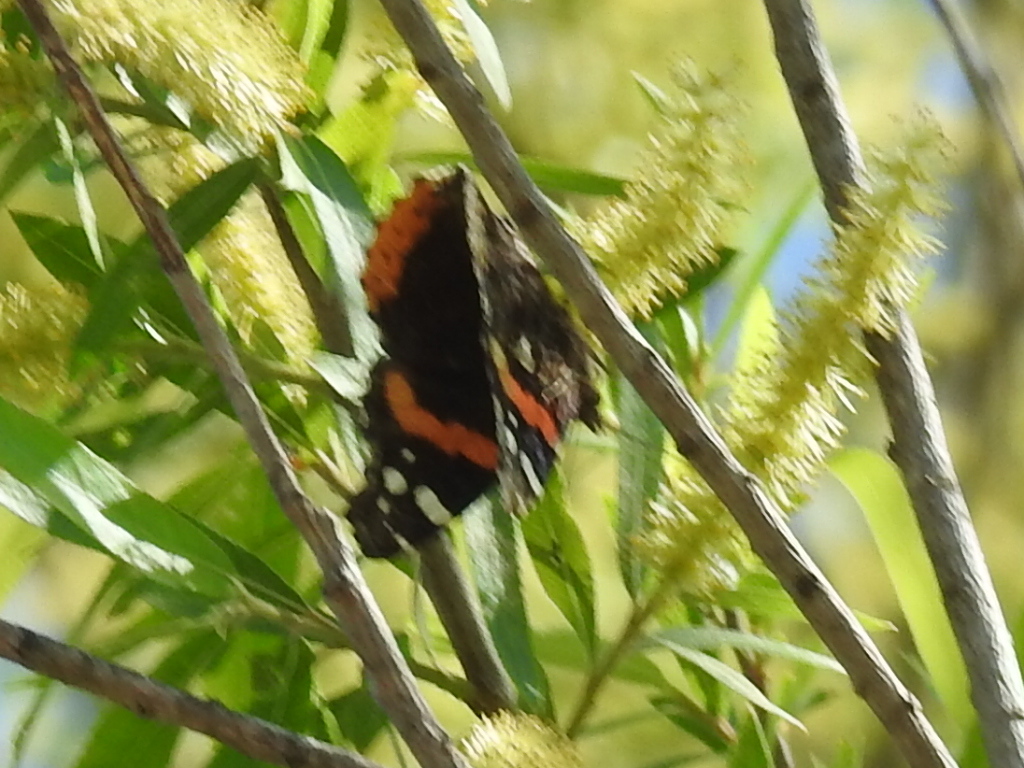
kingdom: Animalia
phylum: Arthropoda
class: Insecta
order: Lepidoptera
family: Nymphalidae
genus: Vanessa
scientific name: Vanessa atalanta
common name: Red admiral
